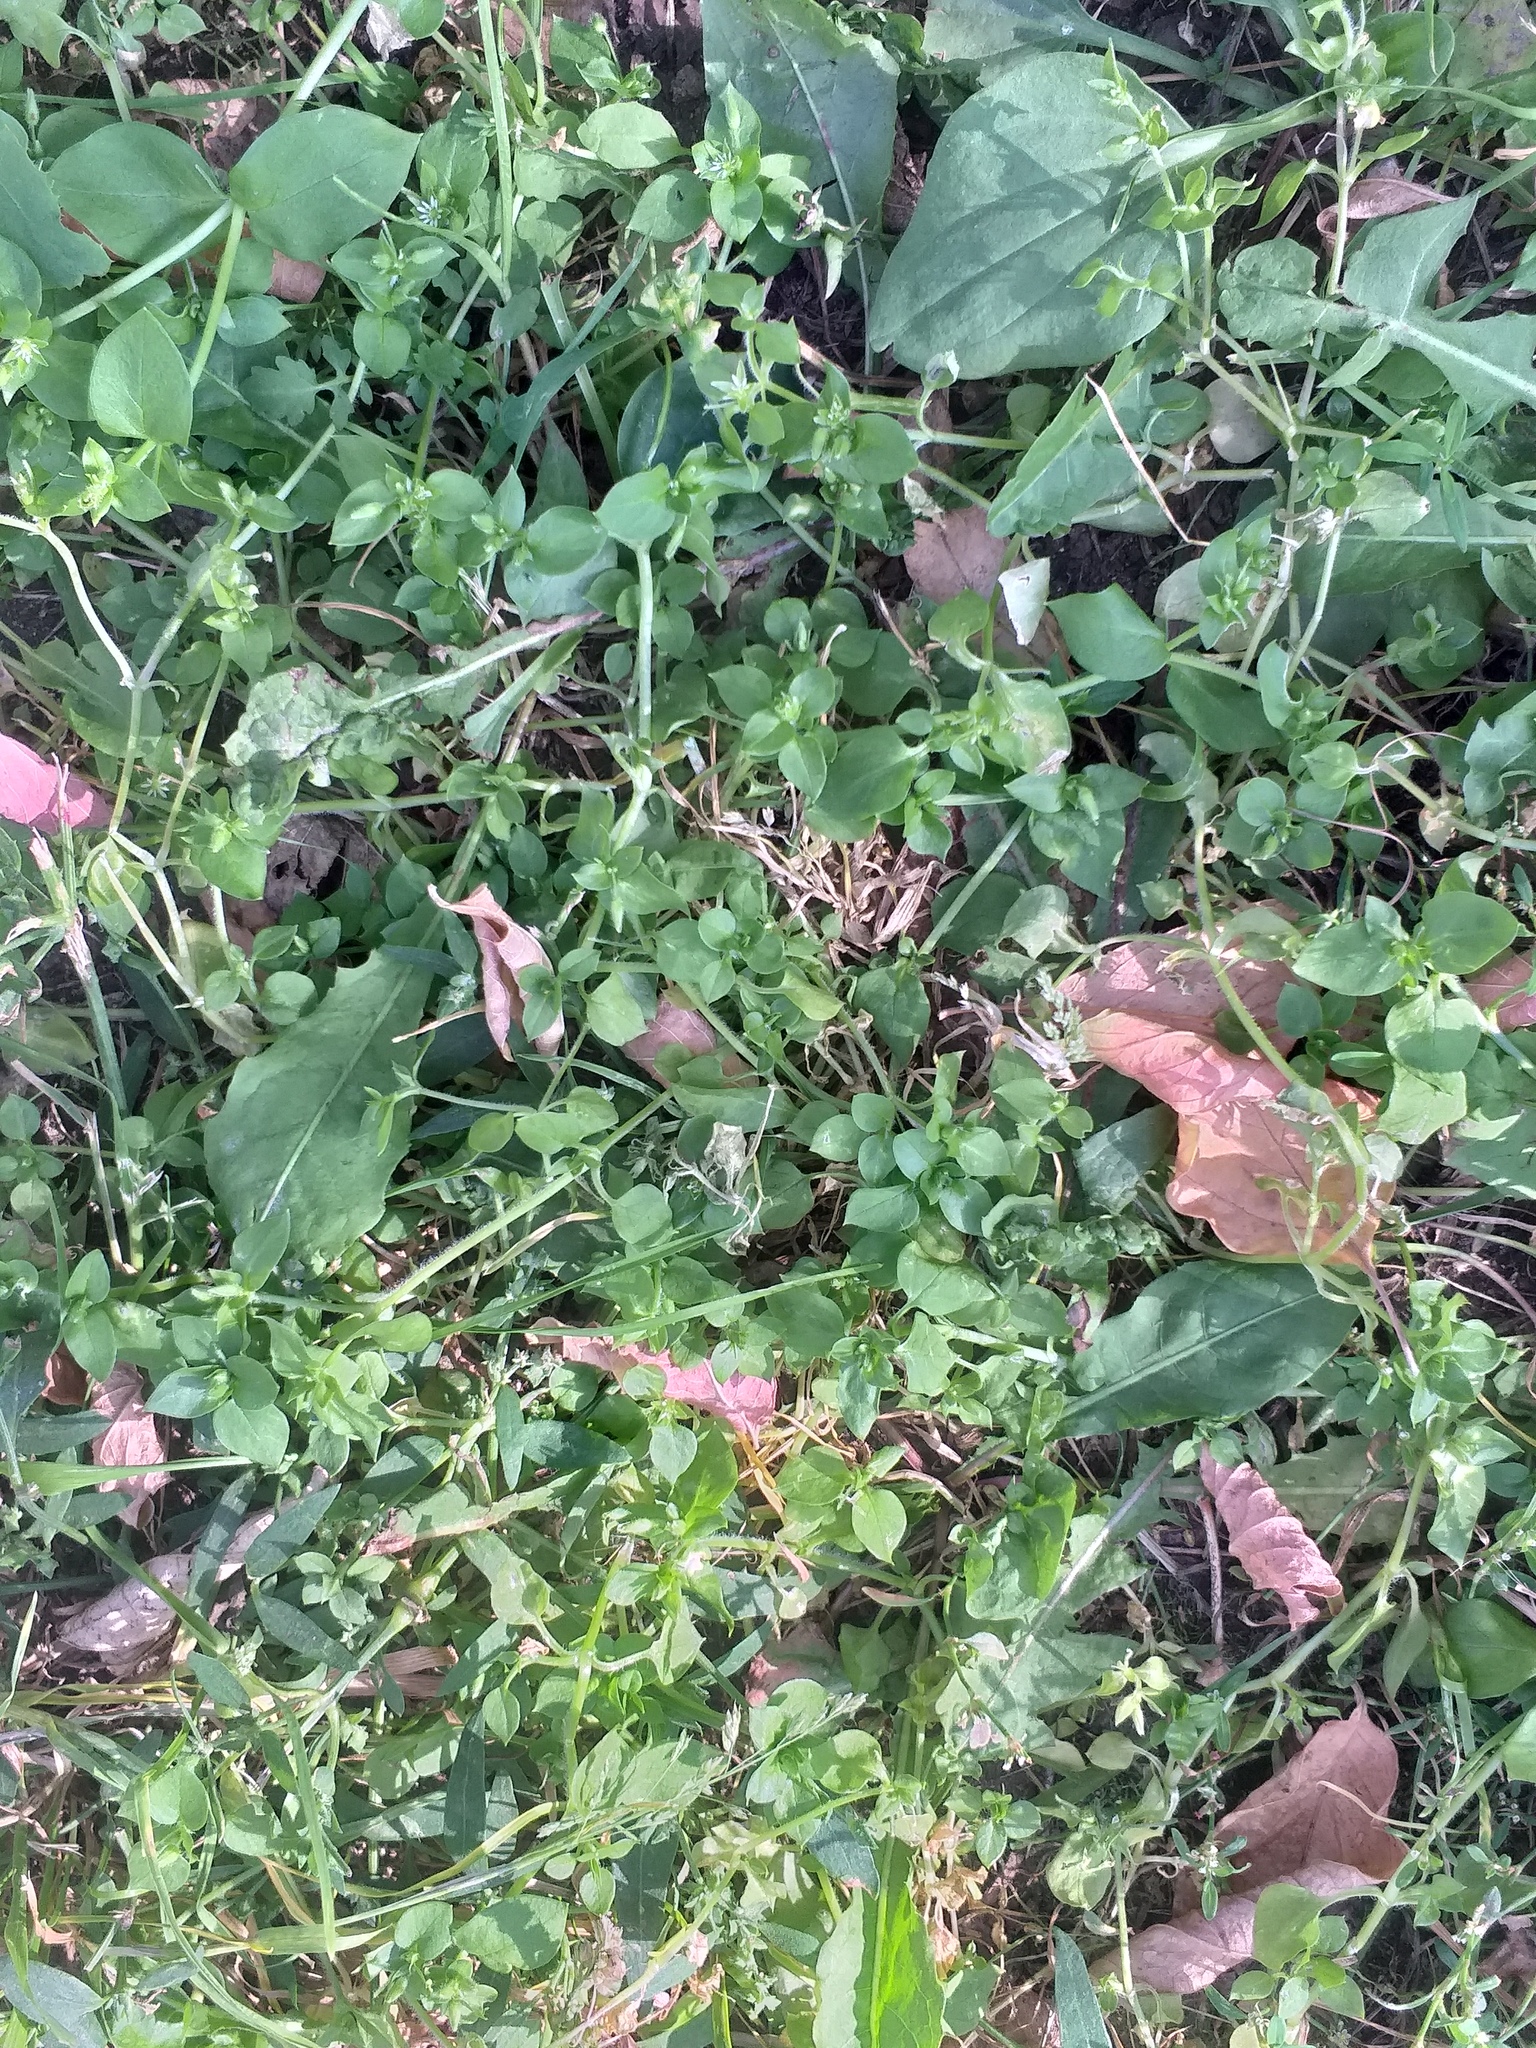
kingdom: Plantae
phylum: Tracheophyta
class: Magnoliopsida
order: Caryophyllales
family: Caryophyllaceae
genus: Stellaria
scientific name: Stellaria media
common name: Common chickweed
